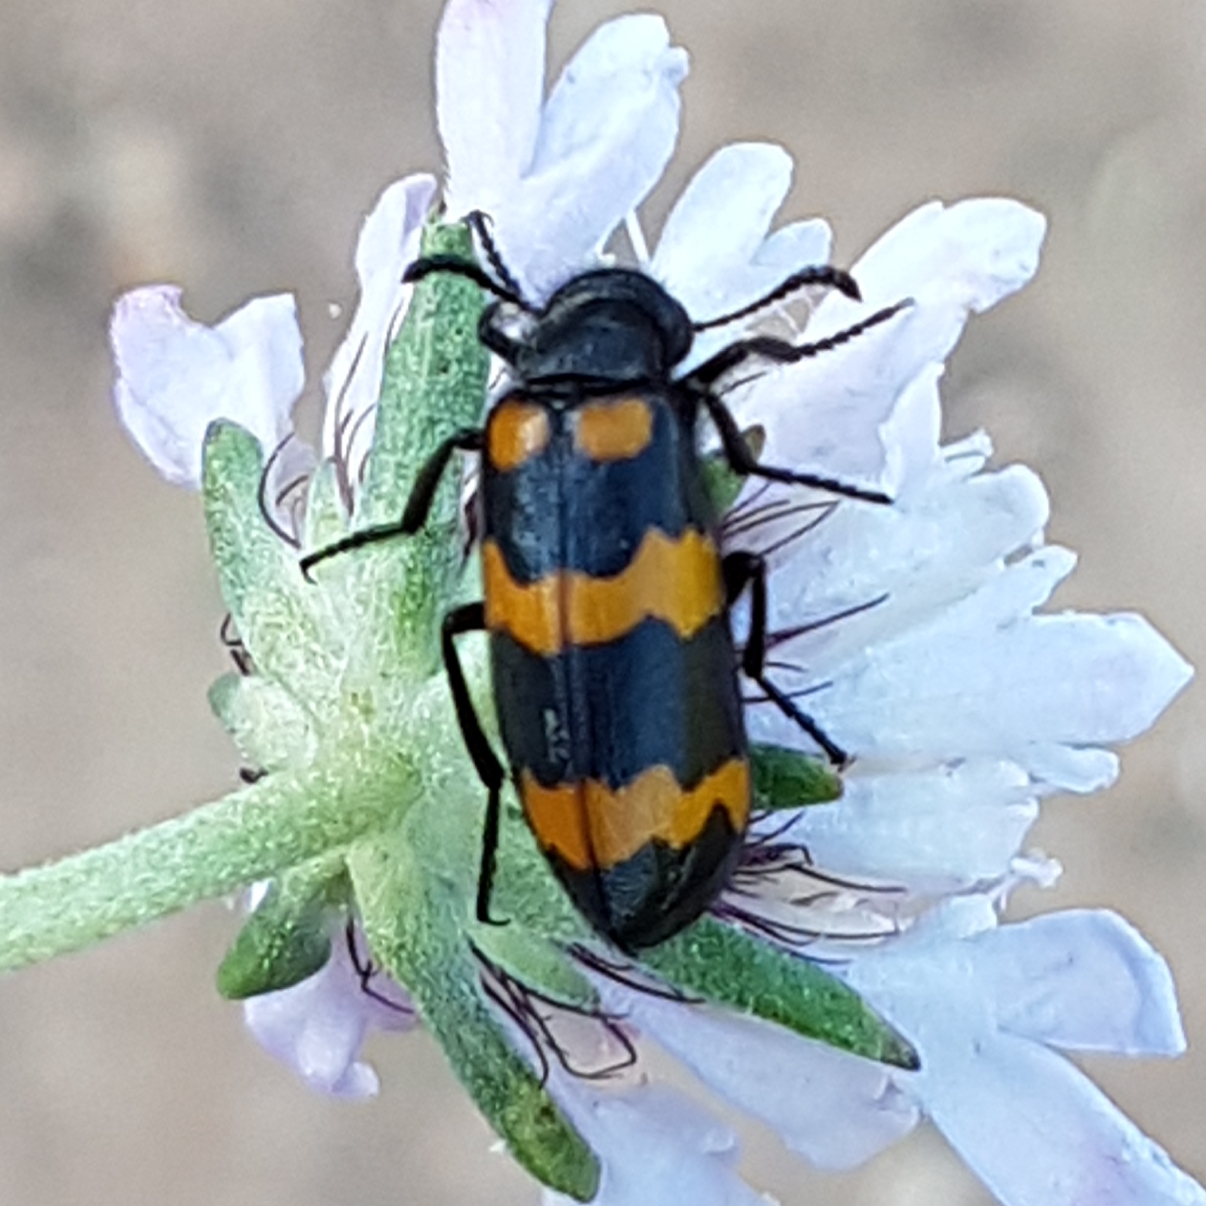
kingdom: Animalia
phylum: Arthropoda
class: Insecta
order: Coleoptera
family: Meloidae
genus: Mylabris
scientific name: Mylabris variabilis
